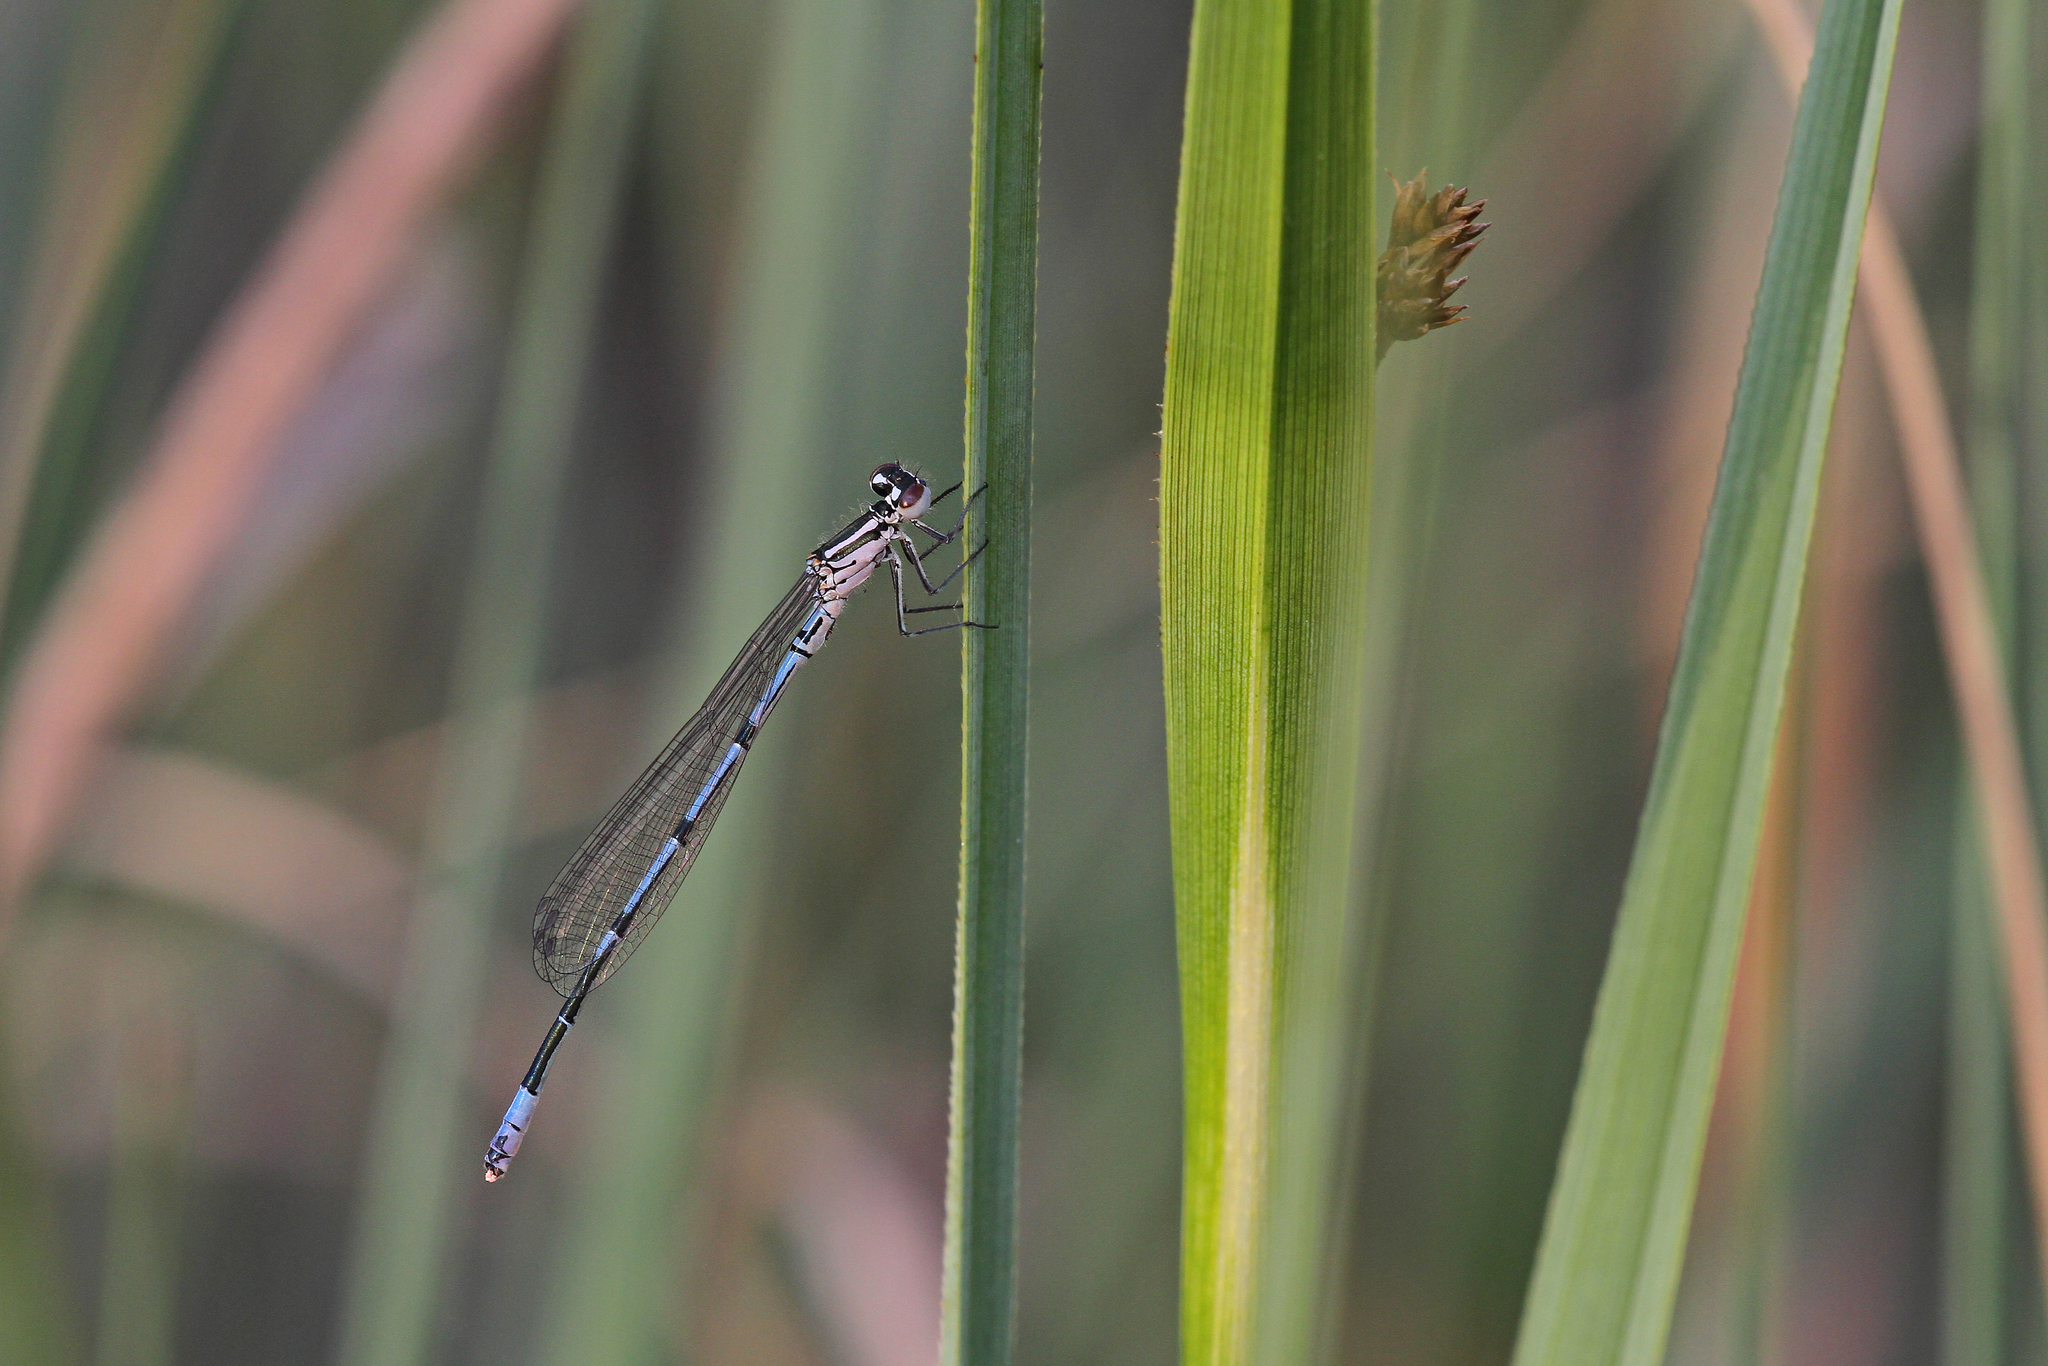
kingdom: Animalia
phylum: Arthropoda
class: Insecta
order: Odonata
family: Coenagrionidae
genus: Coenagrion
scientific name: Coenagrion puella
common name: Azure damselfly
